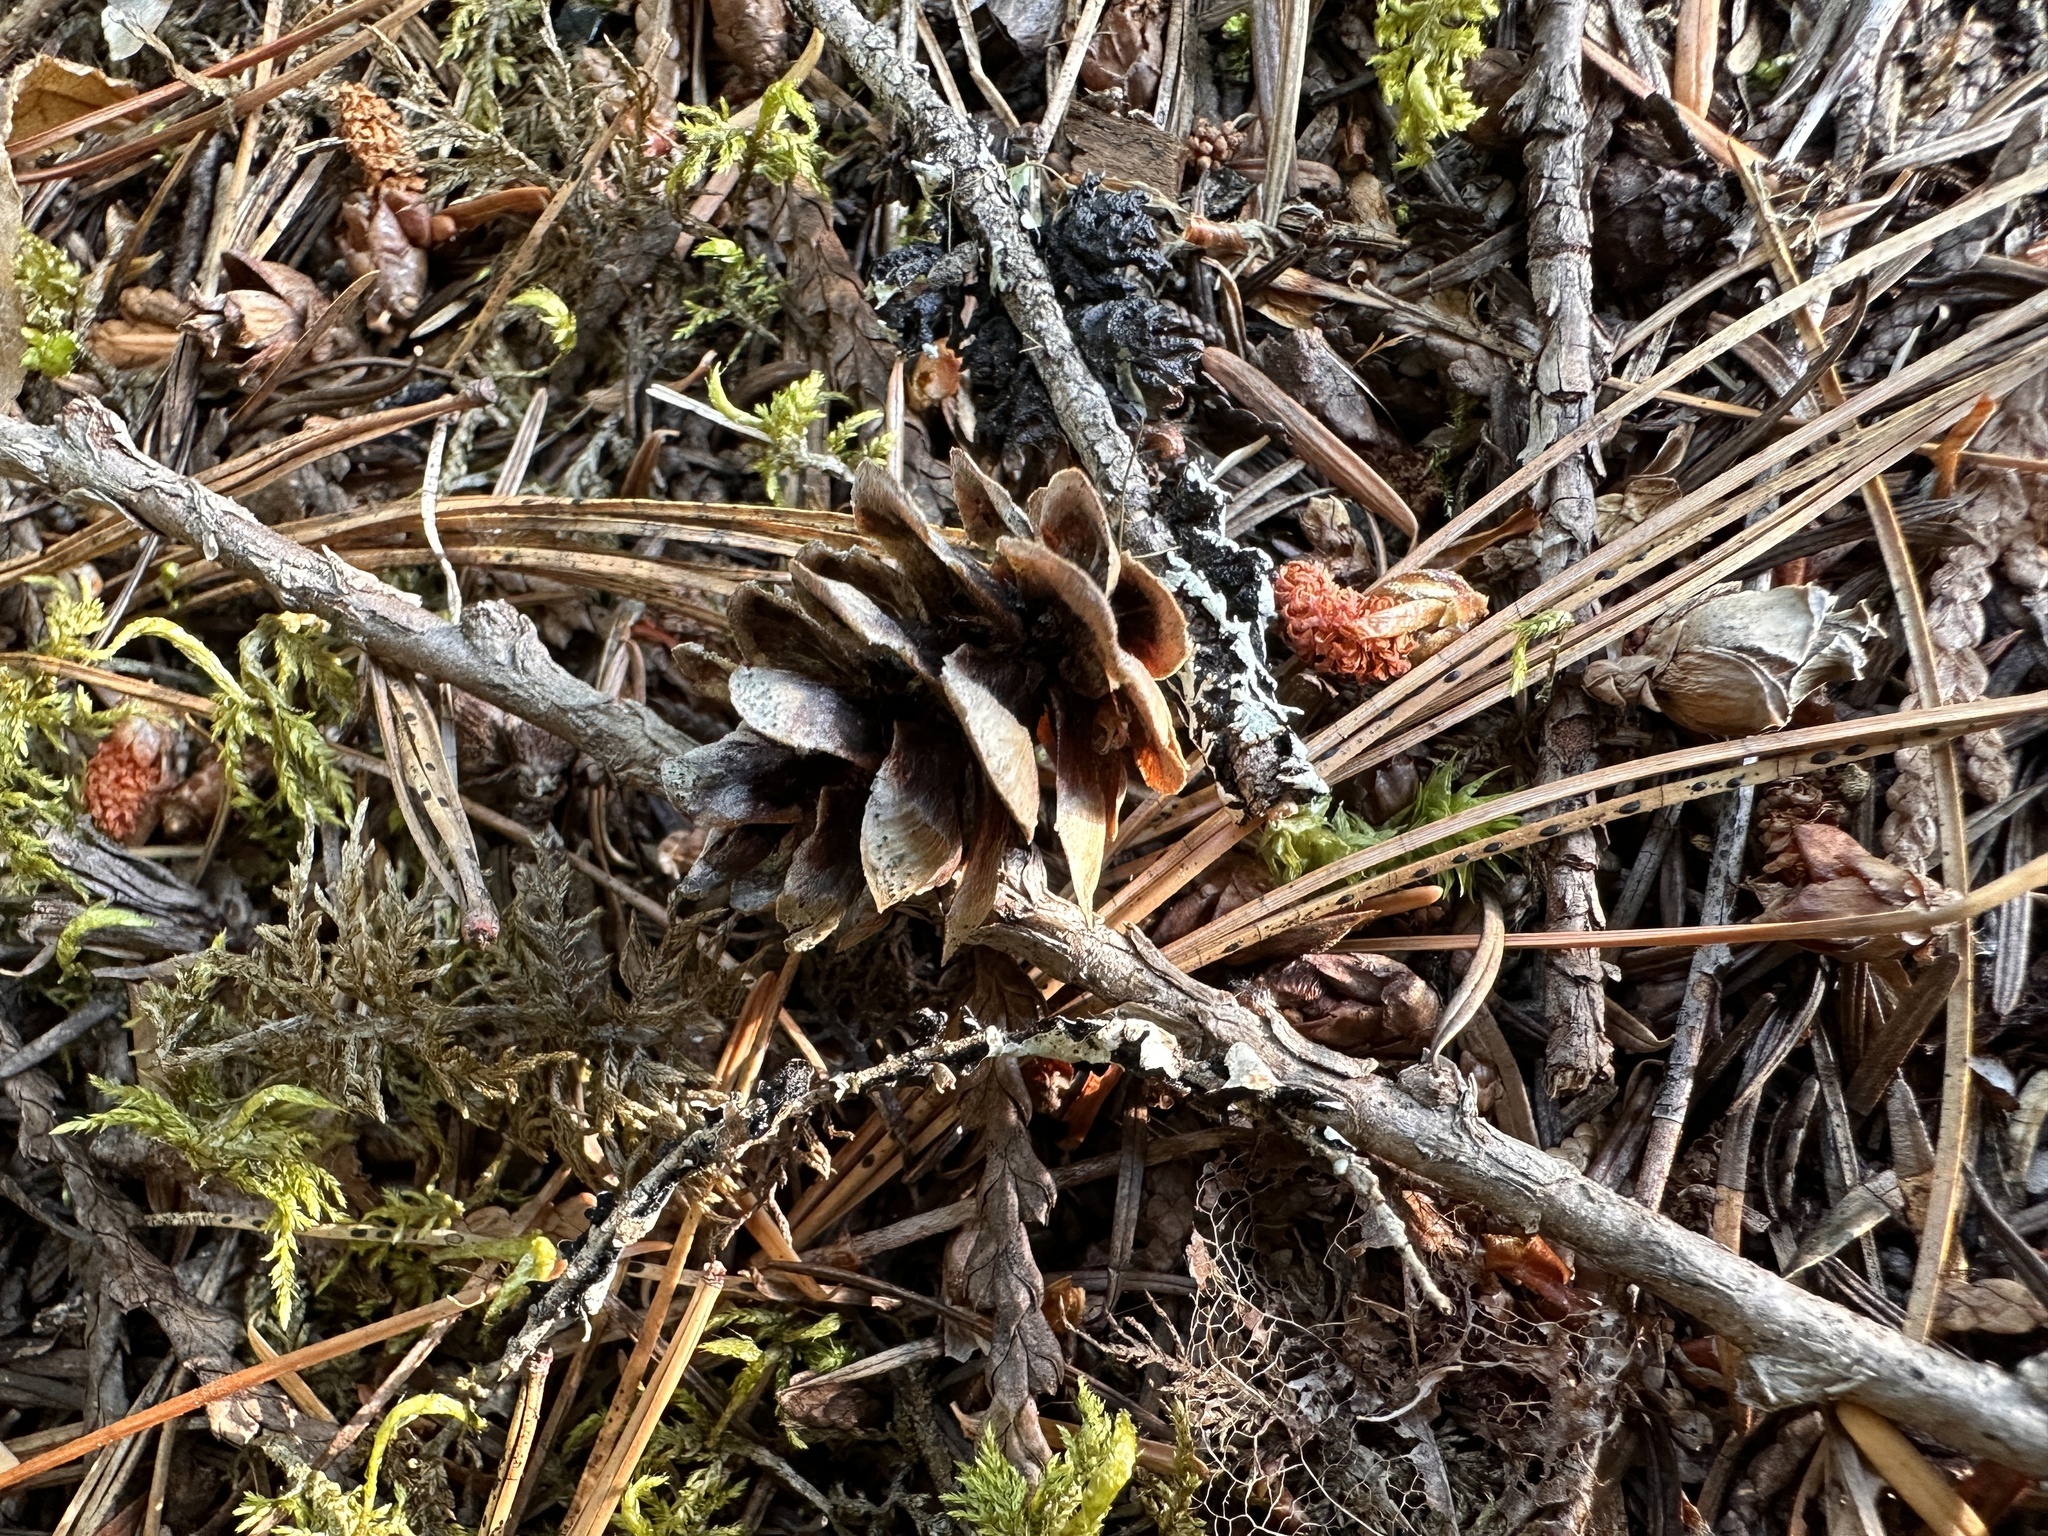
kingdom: Plantae
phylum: Tracheophyta
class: Pinopsida
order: Pinales
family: Pinaceae
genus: Tsuga
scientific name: Tsuga heterophylla
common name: Western hemlock
